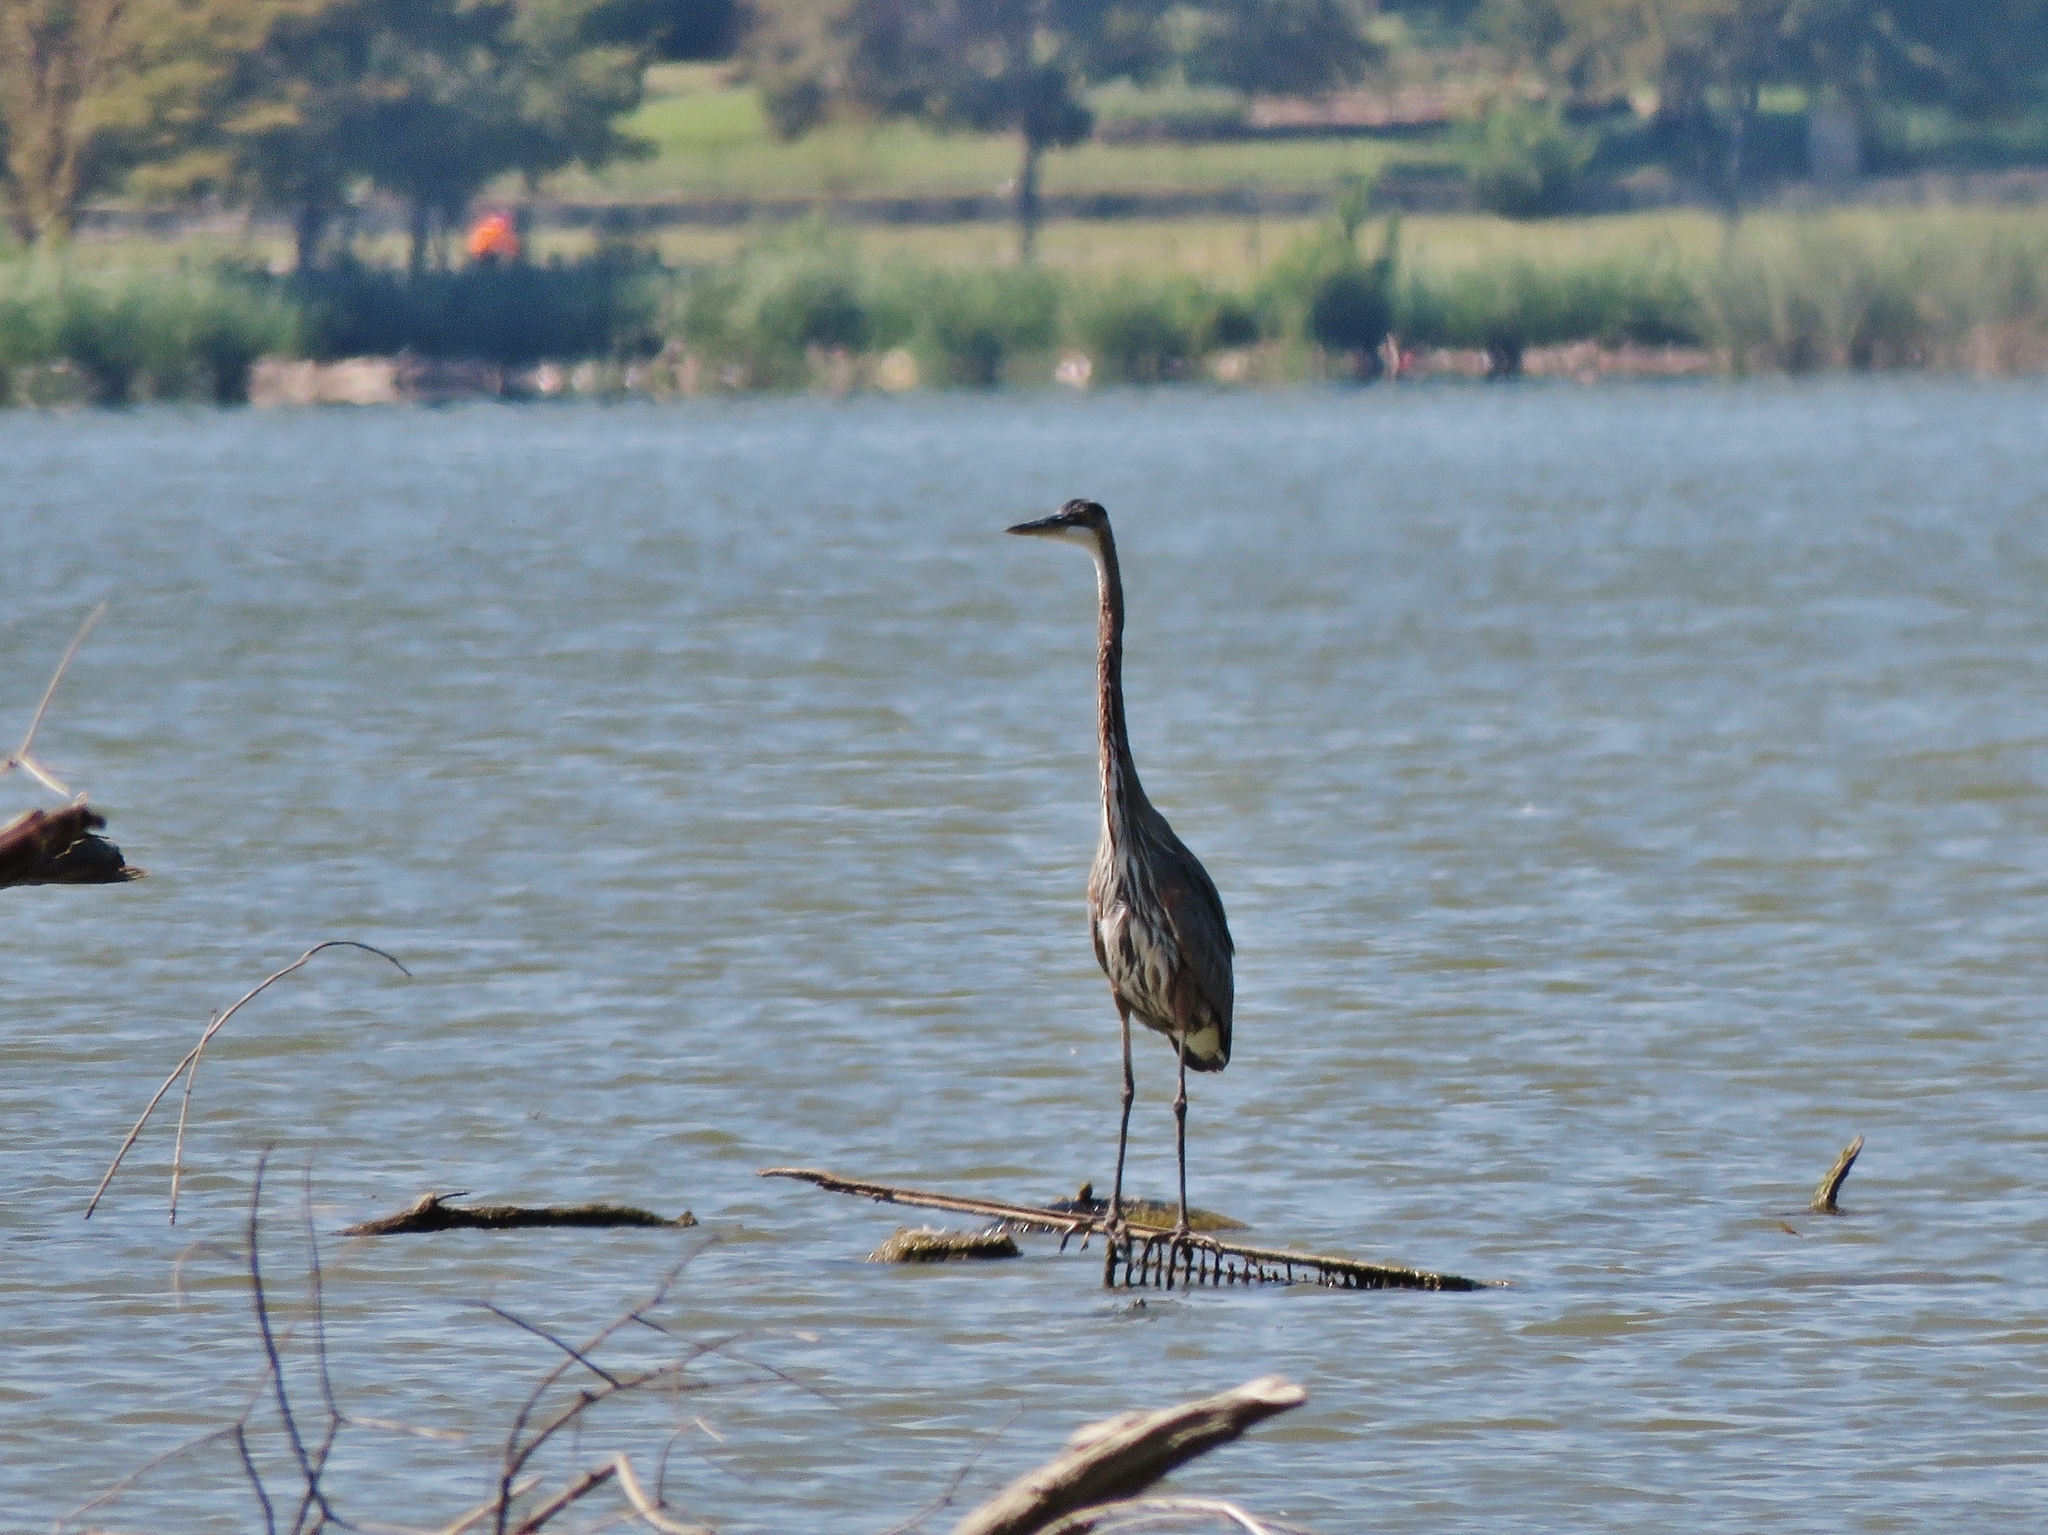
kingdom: Animalia
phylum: Chordata
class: Aves
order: Pelecaniformes
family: Ardeidae
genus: Ardea
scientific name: Ardea herodias
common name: Great blue heron
